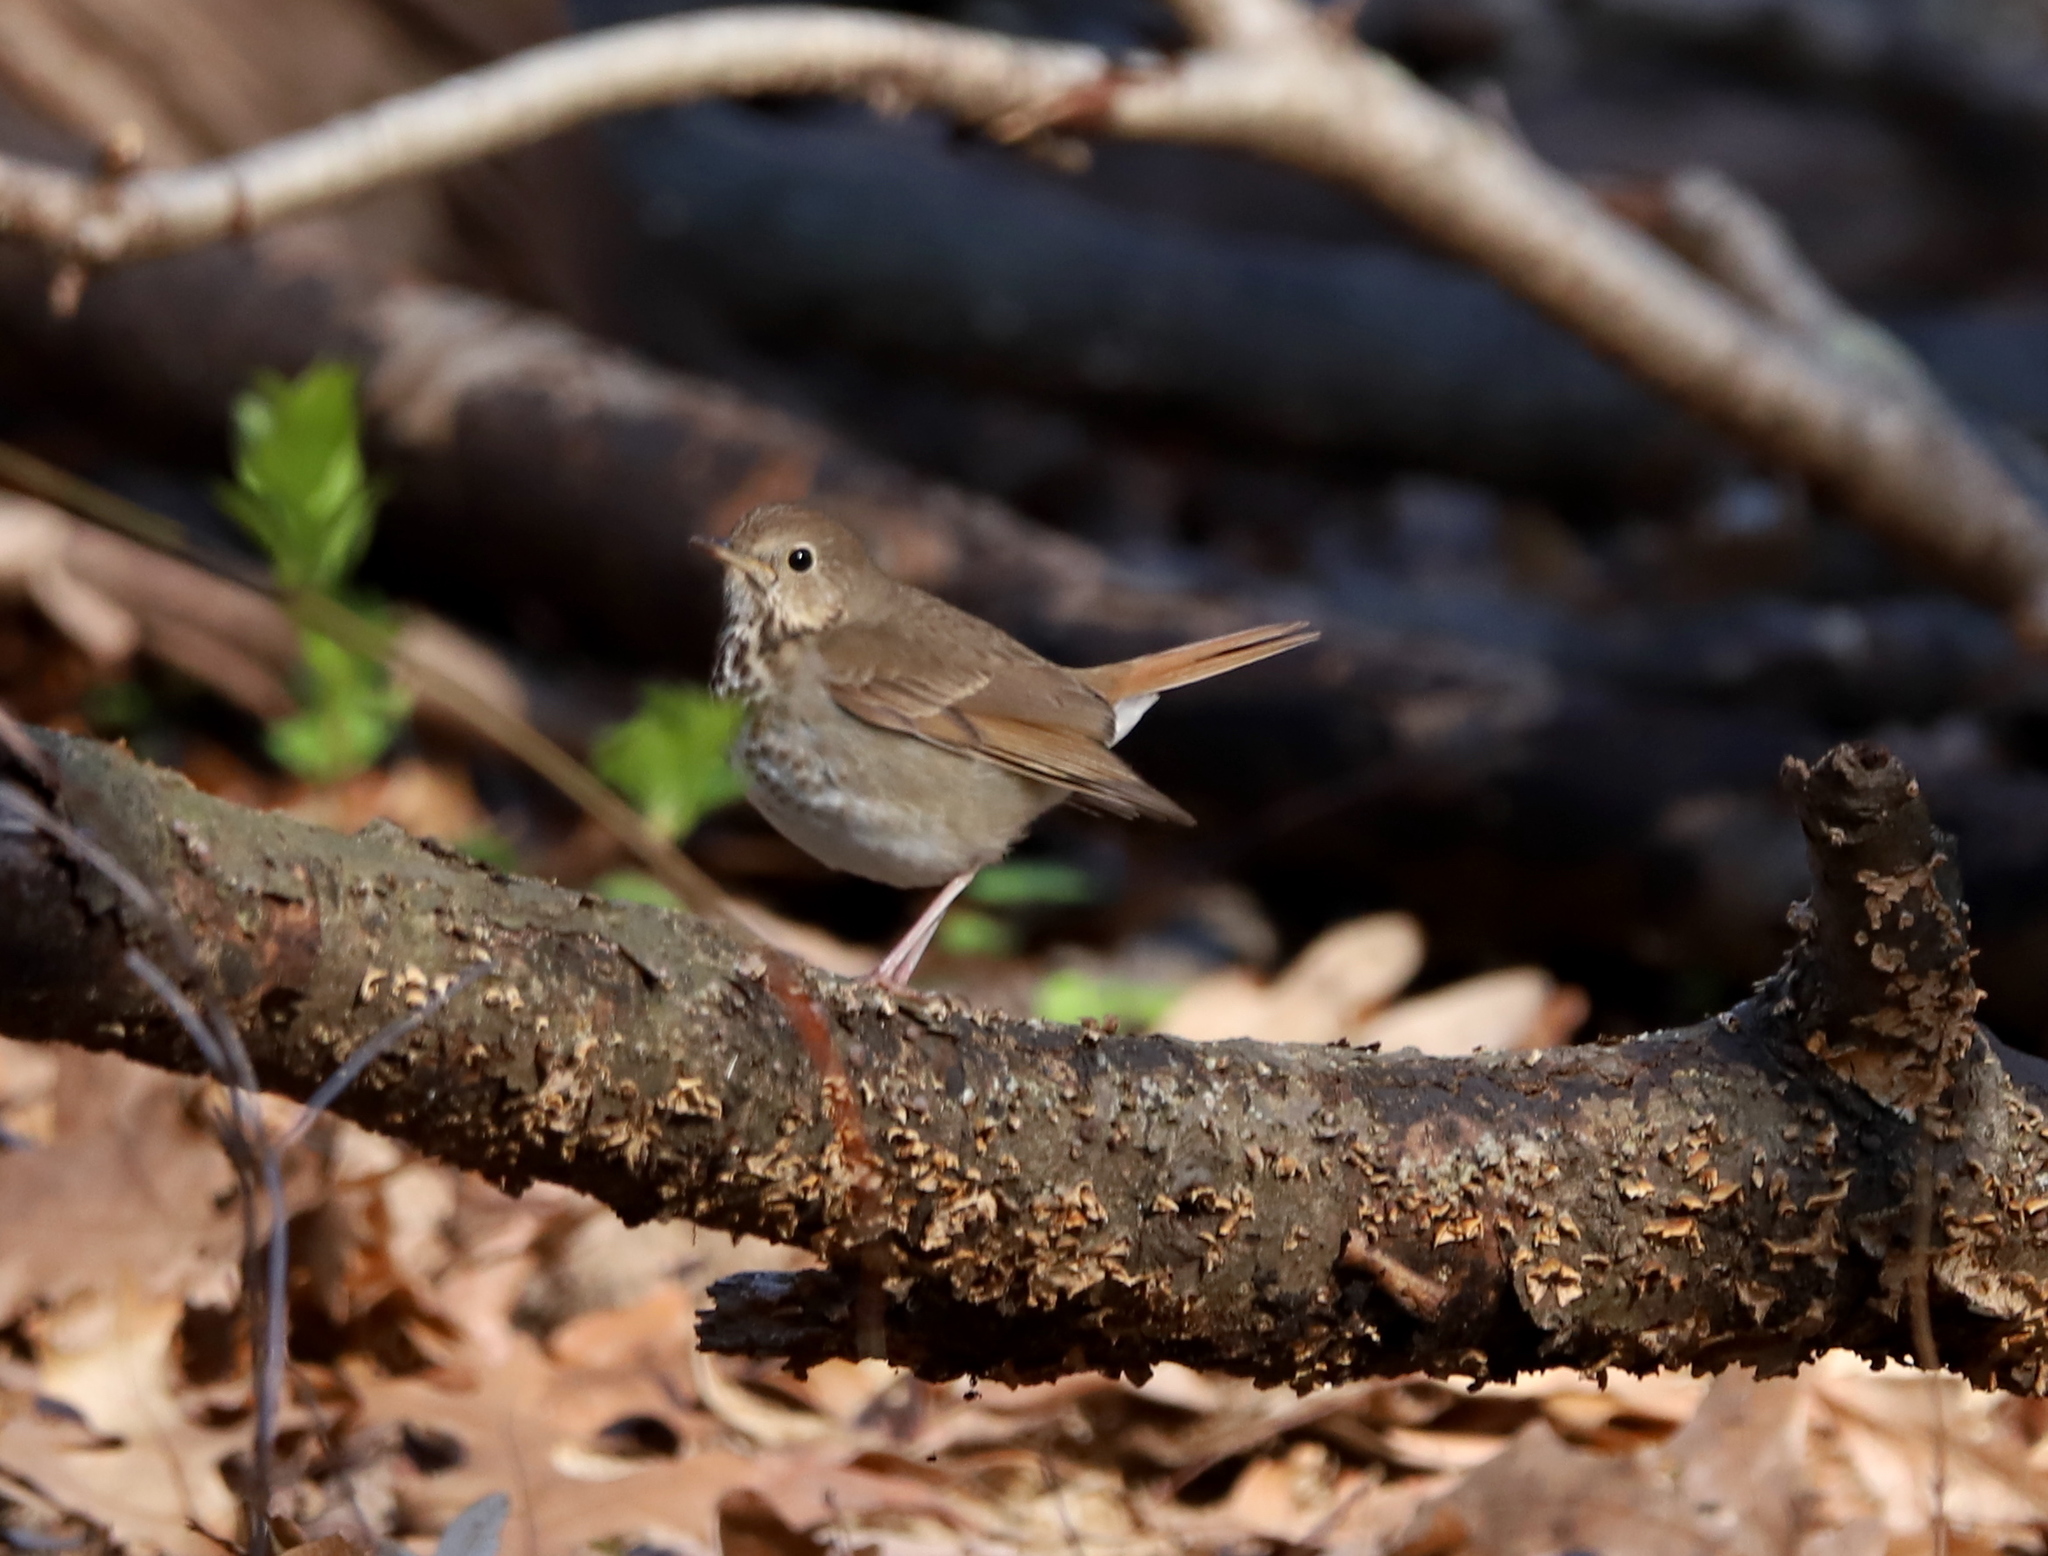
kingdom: Animalia
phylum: Chordata
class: Aves
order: Passeriformes
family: Turdidae
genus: Catharus
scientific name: Catharus guttatus
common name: Hermit thrush
